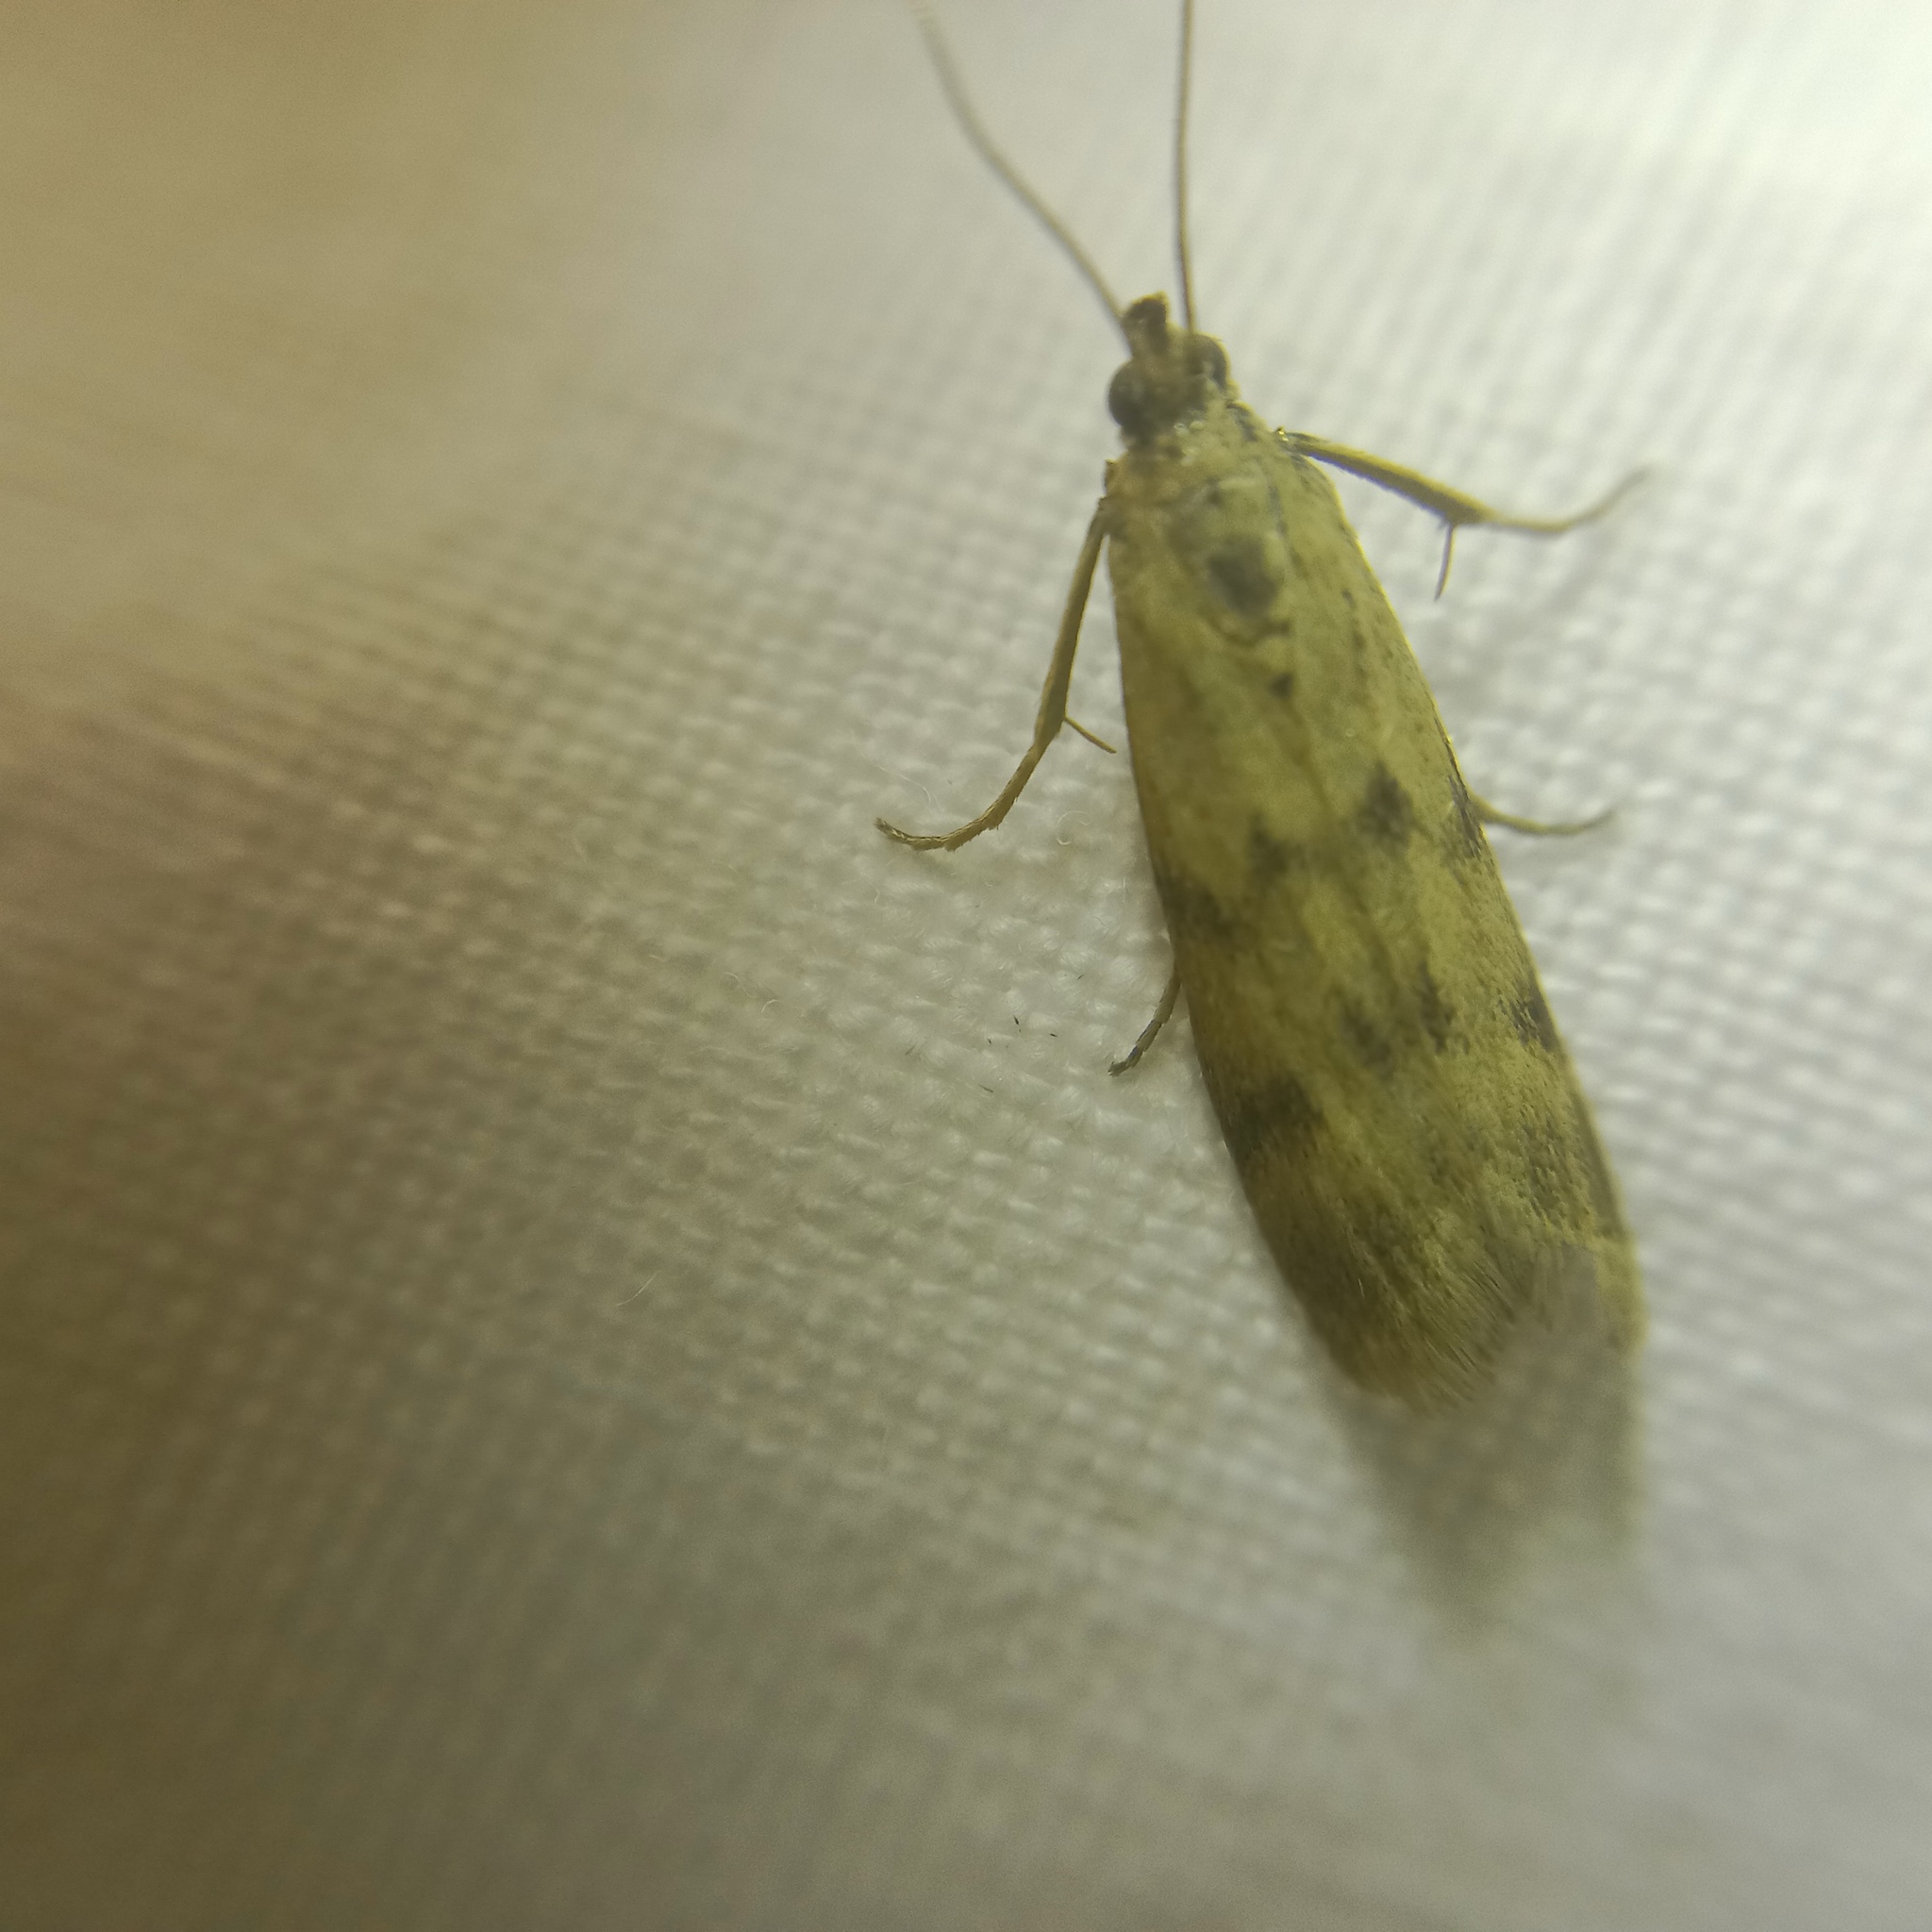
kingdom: Animalia
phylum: Arthropoda
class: Insecta
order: Lepidoptera
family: Pyralidae
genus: Homoeosoma
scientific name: Homoeosoma sinuella
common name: Twin-barred knot-horn
